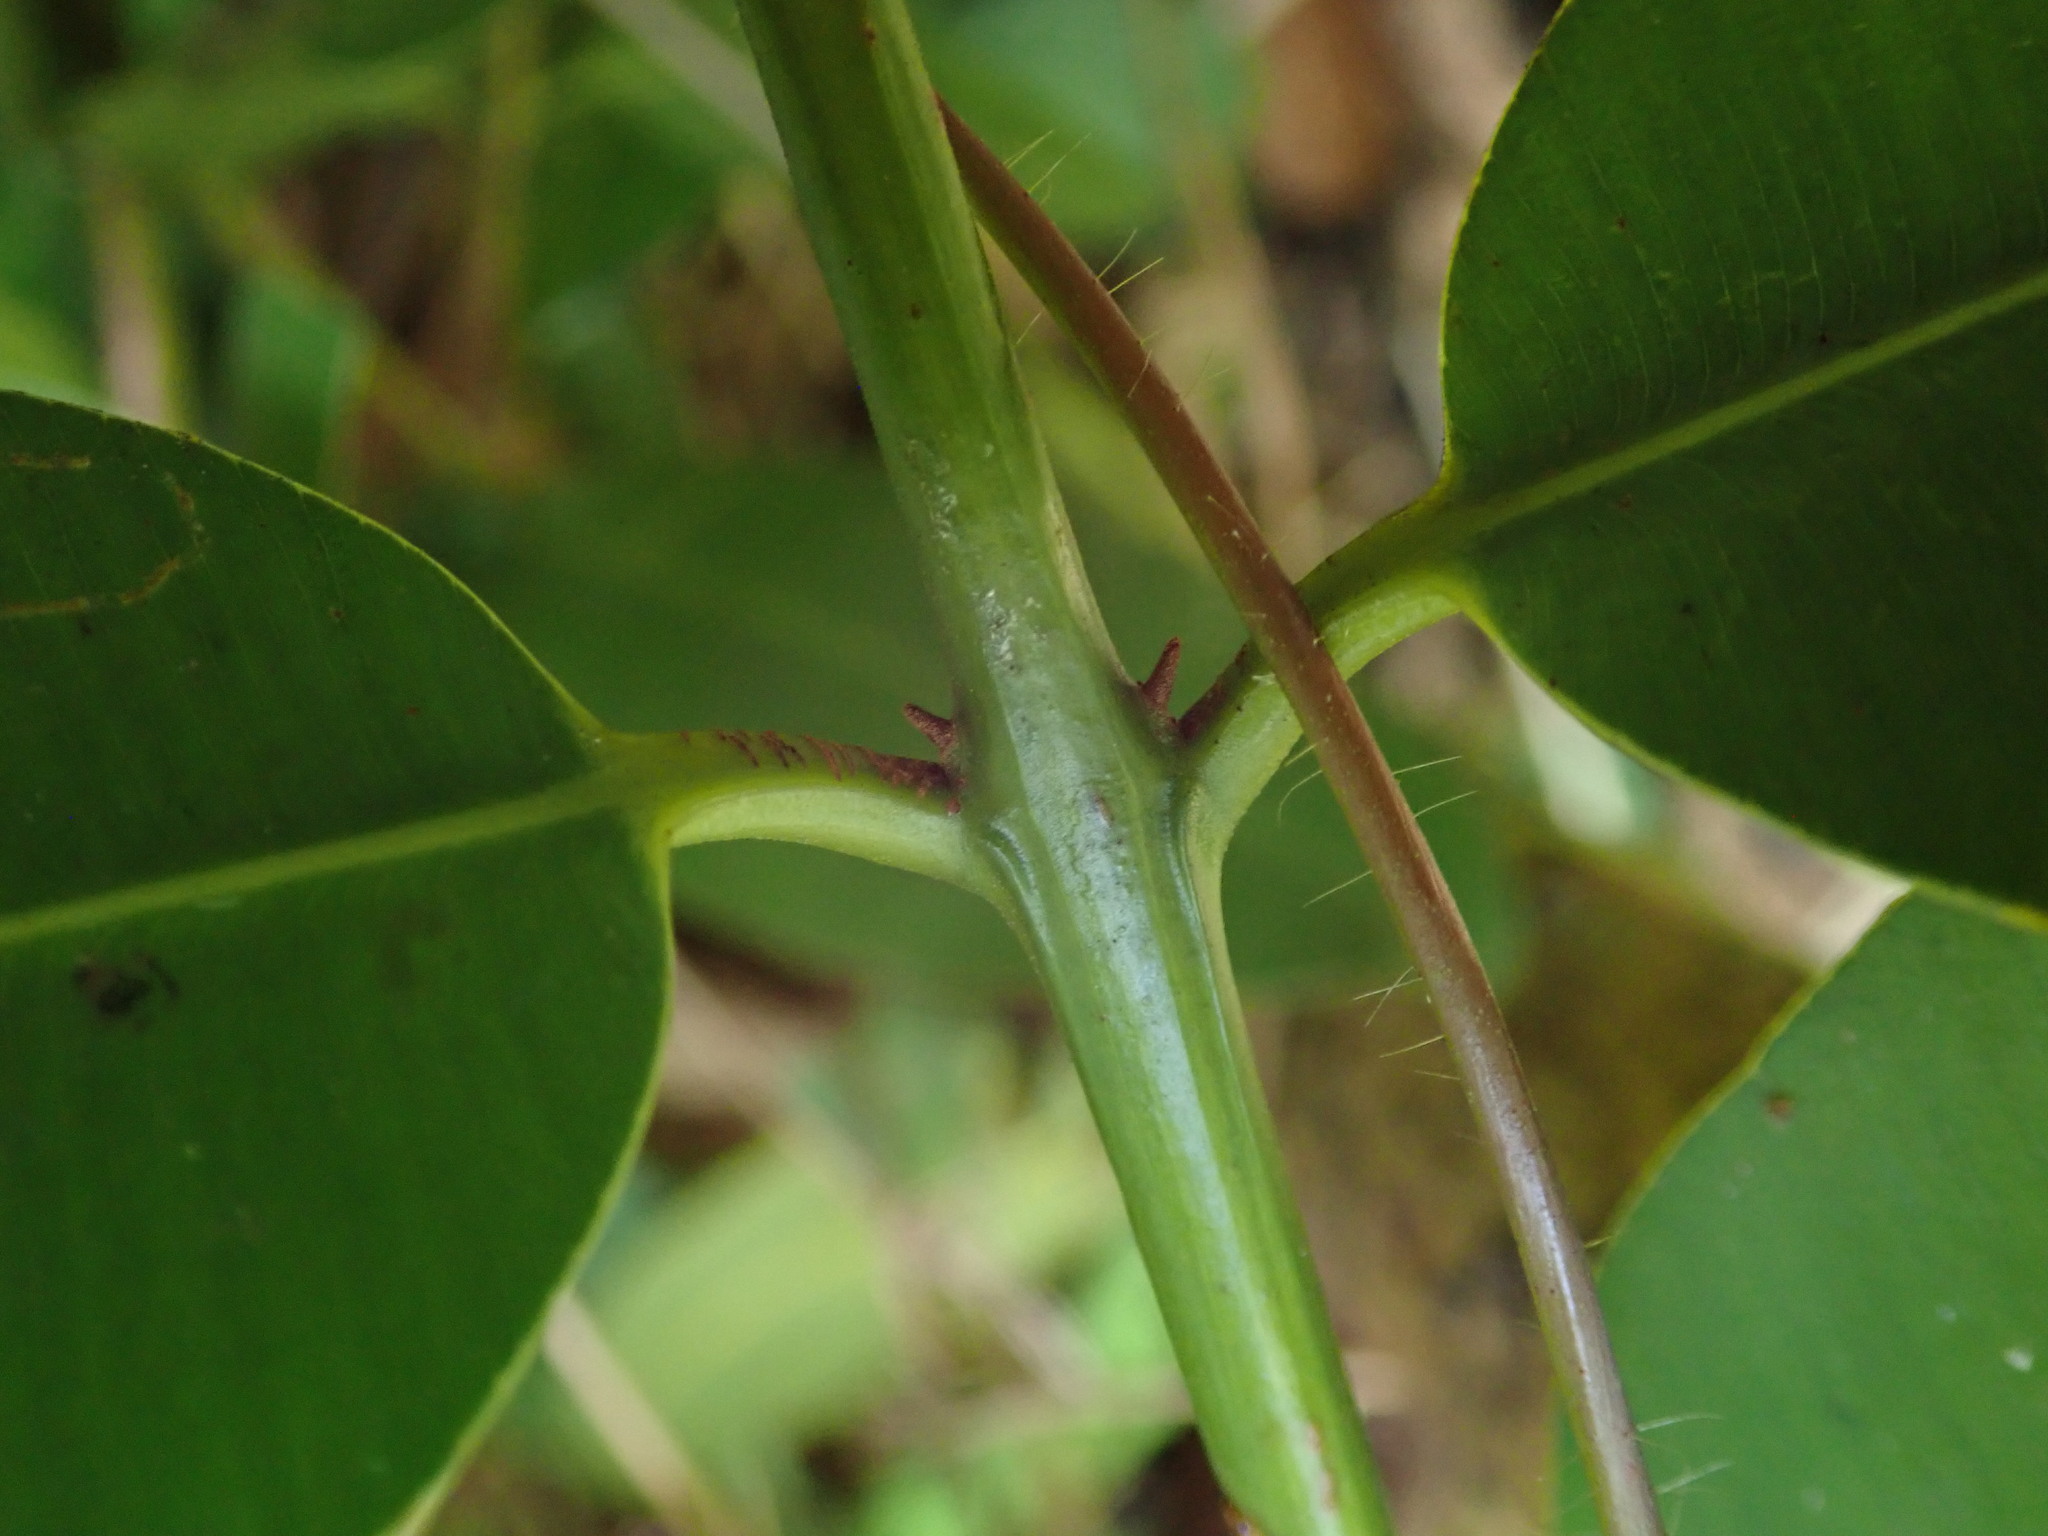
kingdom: Plantae
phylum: Tracheophyta
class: Magnoliopsida
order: Malpighiales
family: Calophyllaceae
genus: Calophyllum
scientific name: Calophyllum antillanum
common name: Santa maria-tree
